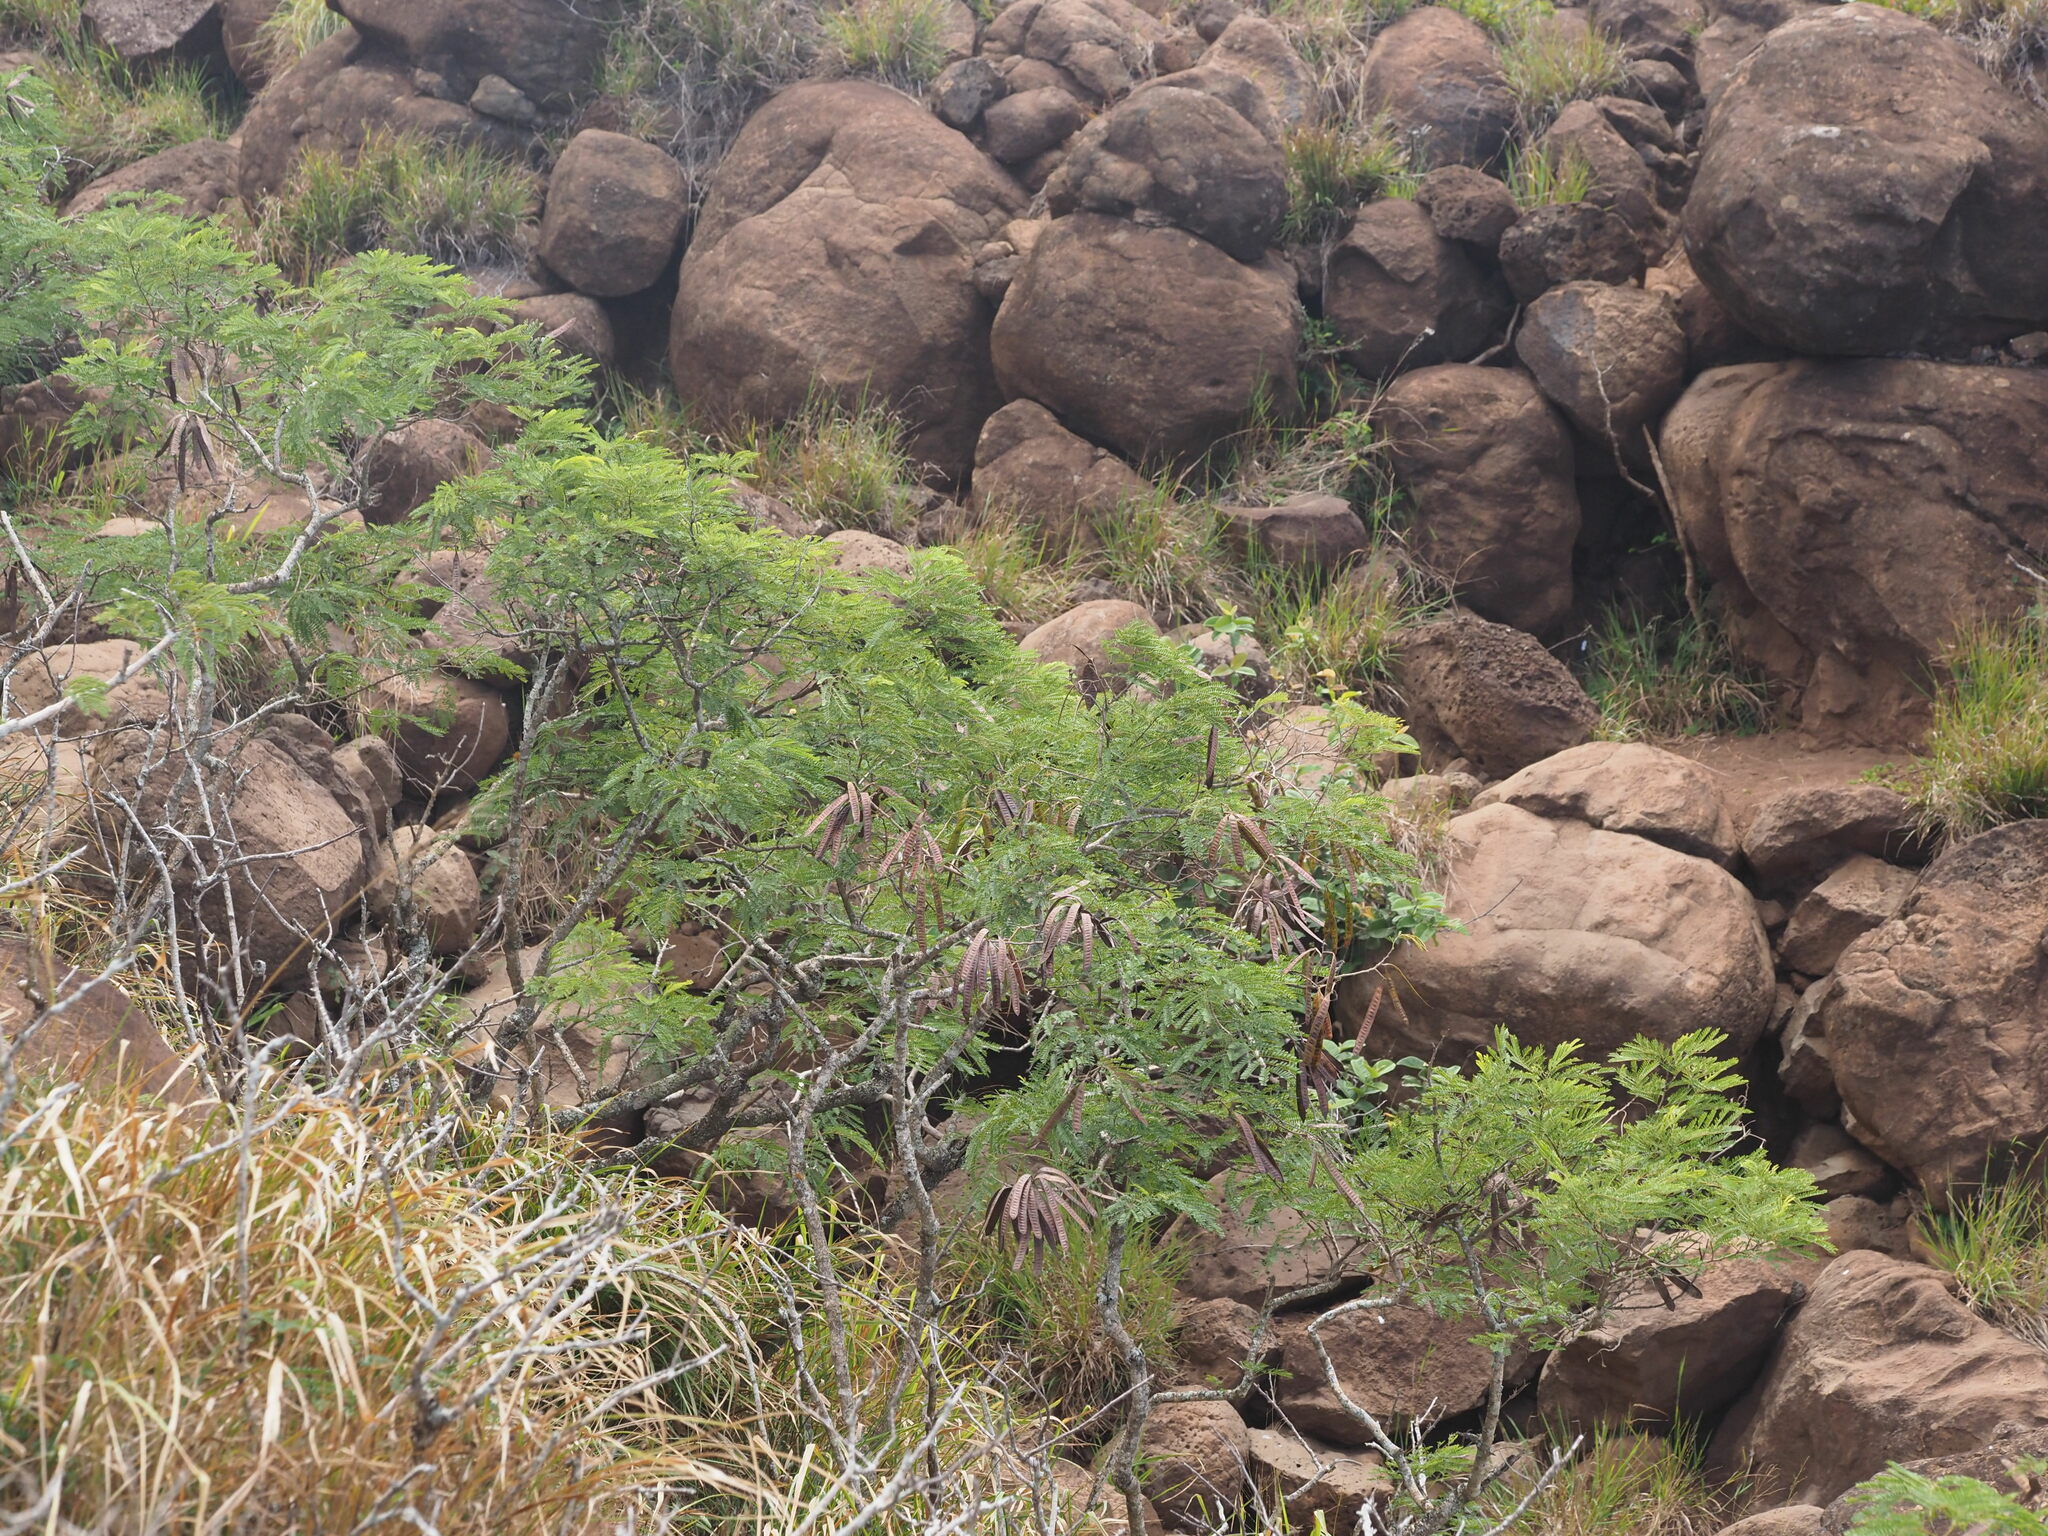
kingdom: Plantae
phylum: Tracheophyta
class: Magnoliopsida
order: Fabales
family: Fabaceae
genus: Leucaena
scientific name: Leucaena leucocephala
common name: White leadtree
